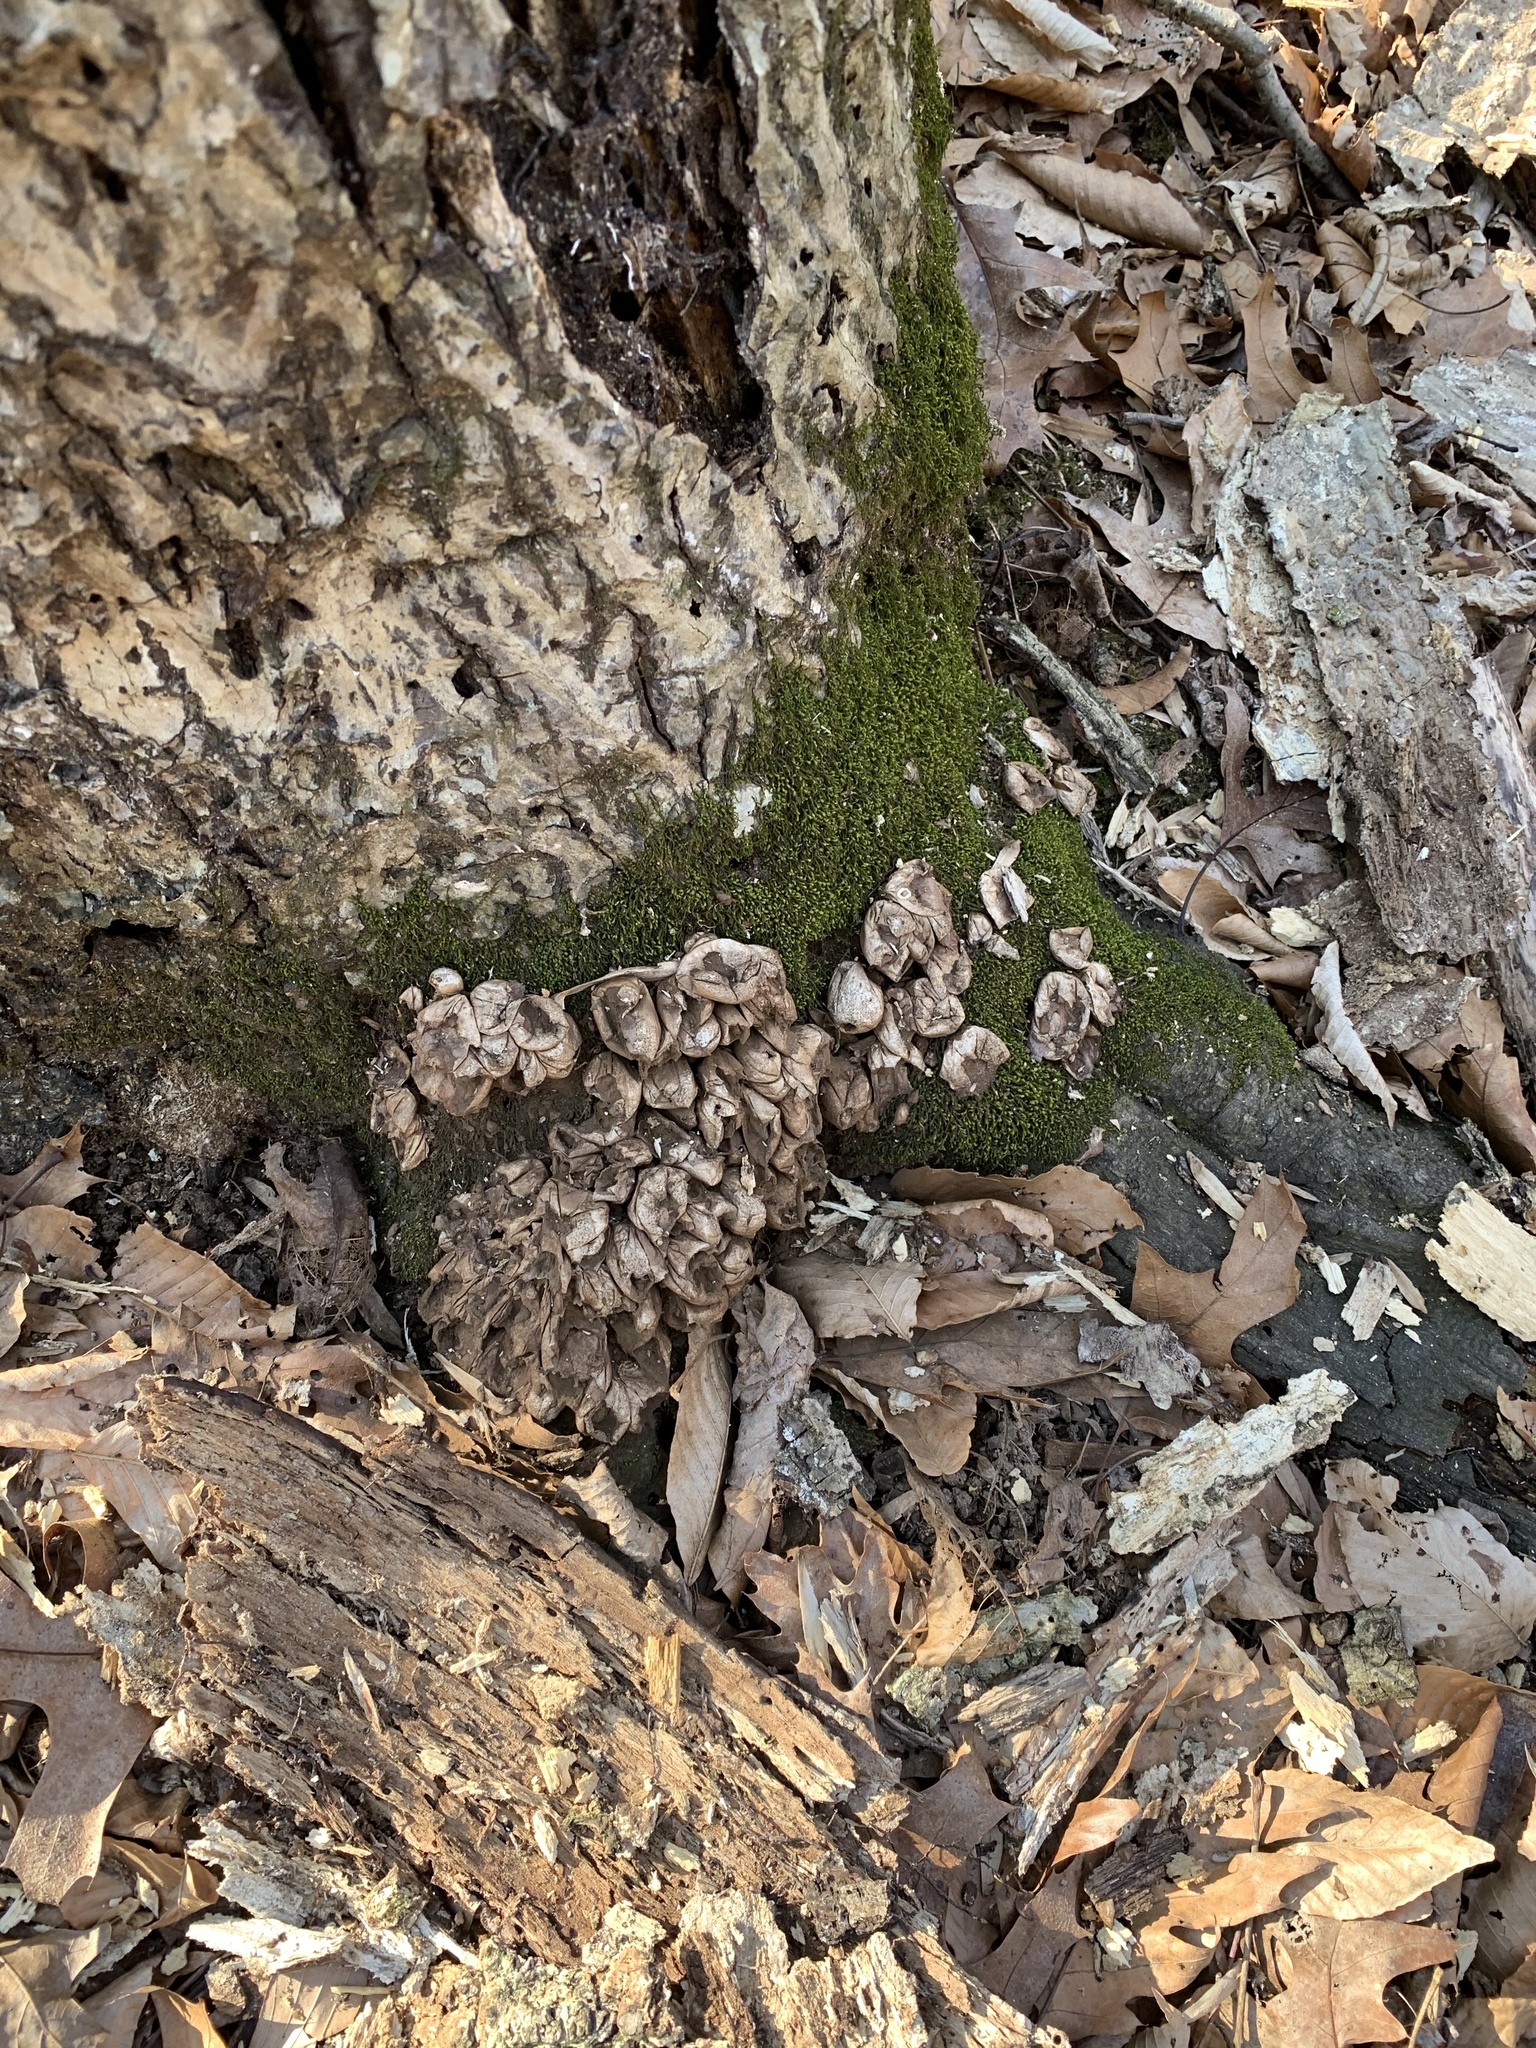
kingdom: Fungi
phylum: Basidiomycota
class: Agaricomycetes
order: Agaricales
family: Lycoperdaceae
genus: Apioperdon
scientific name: Apioperdon pyriforme
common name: Pear-shaped puffball
